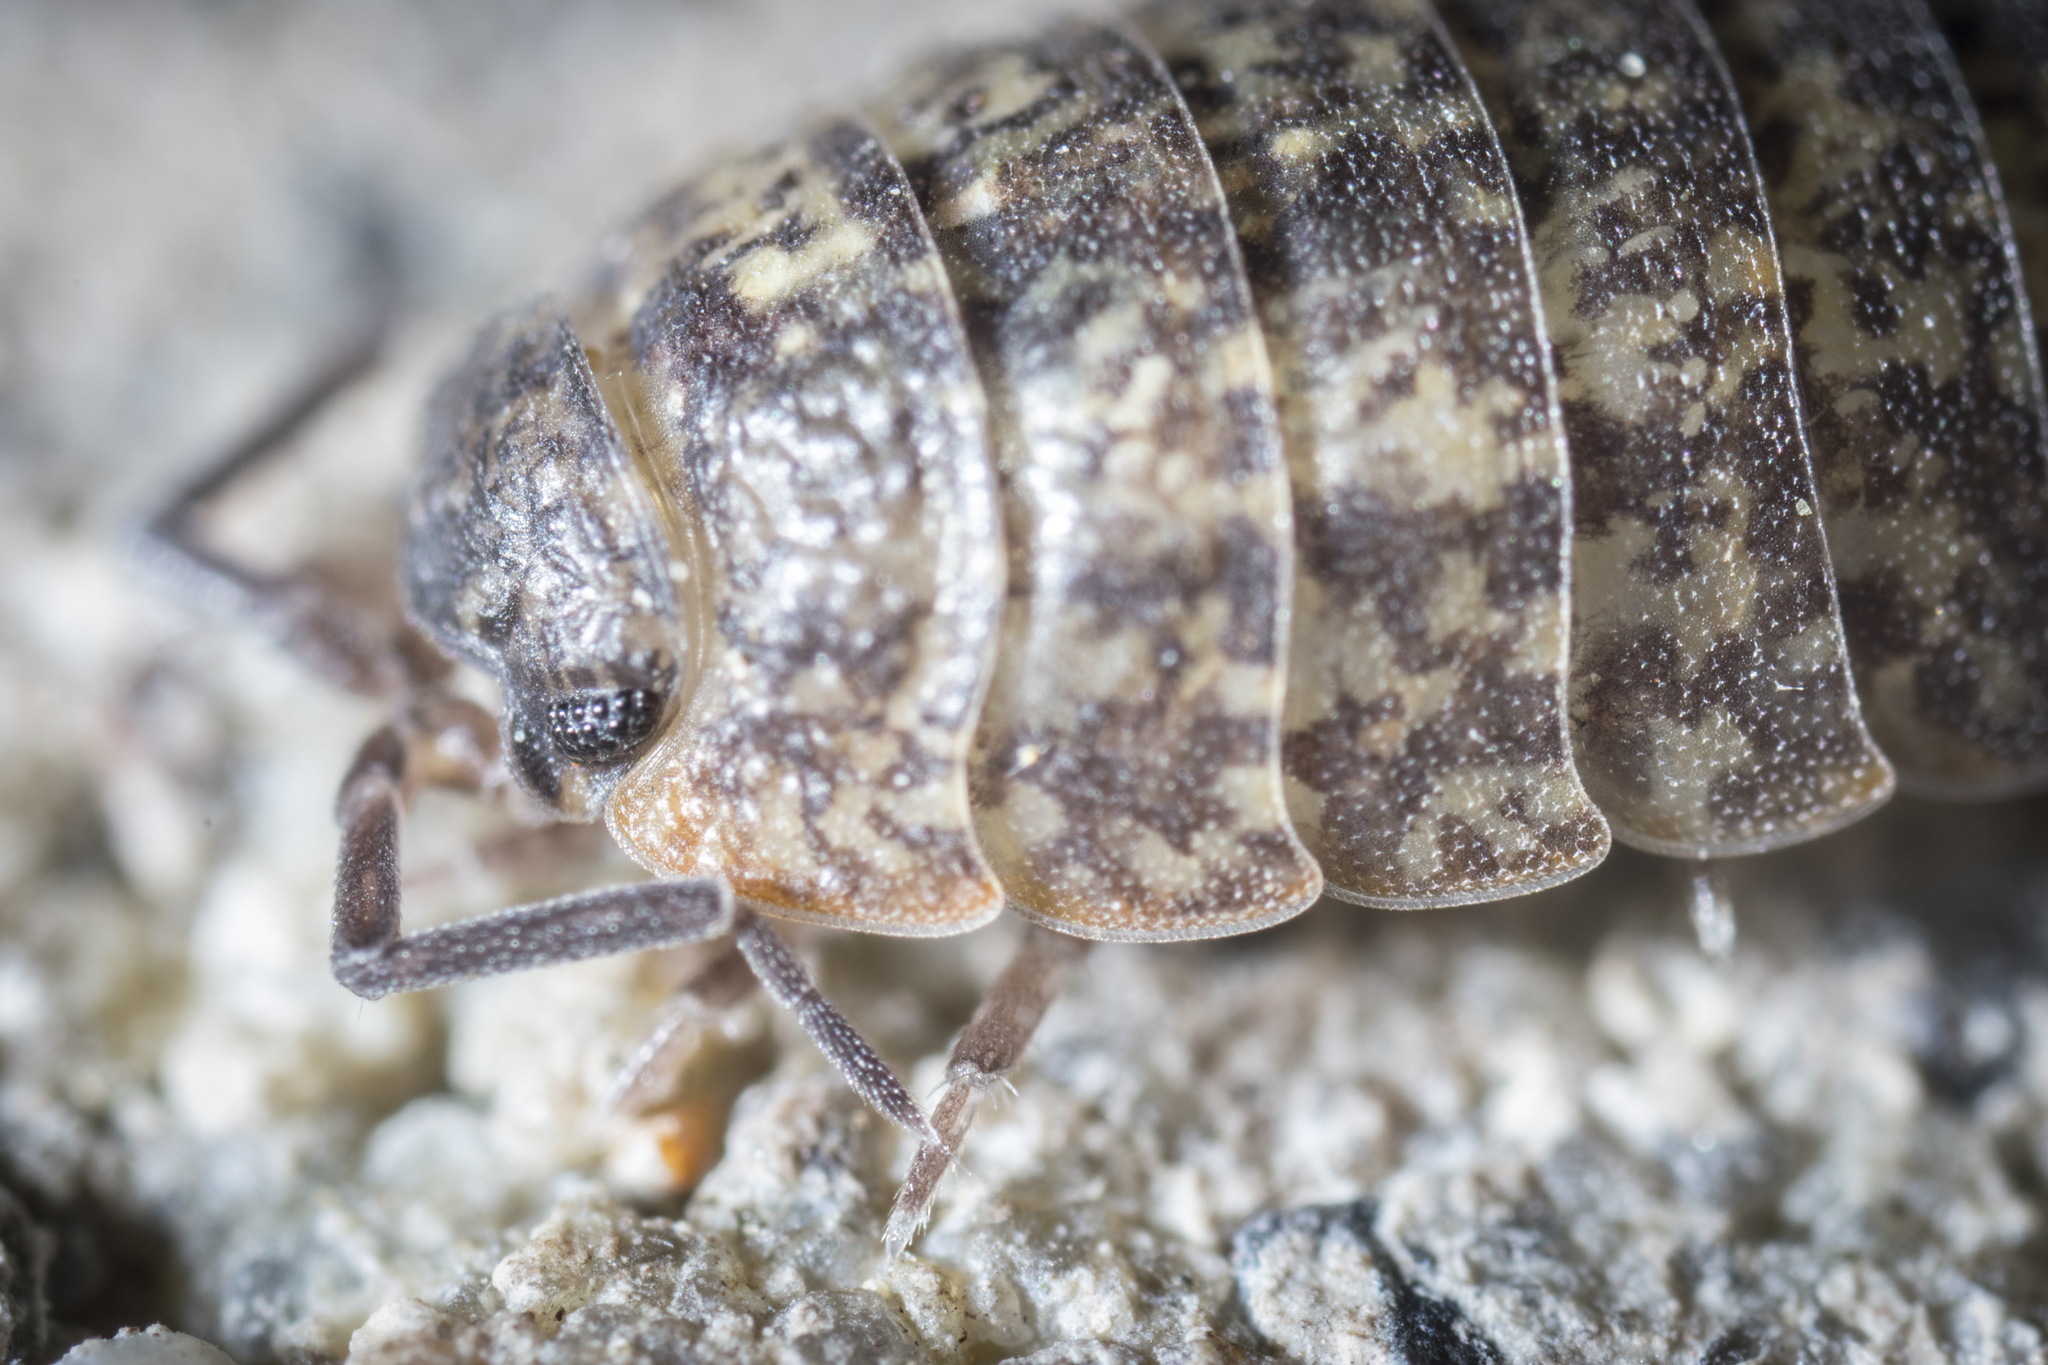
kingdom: Animalia
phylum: Arthropoda
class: Malacostraca
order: Isopoda
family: Trachelipodidae
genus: Porcellium
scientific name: Porcellium collicola
